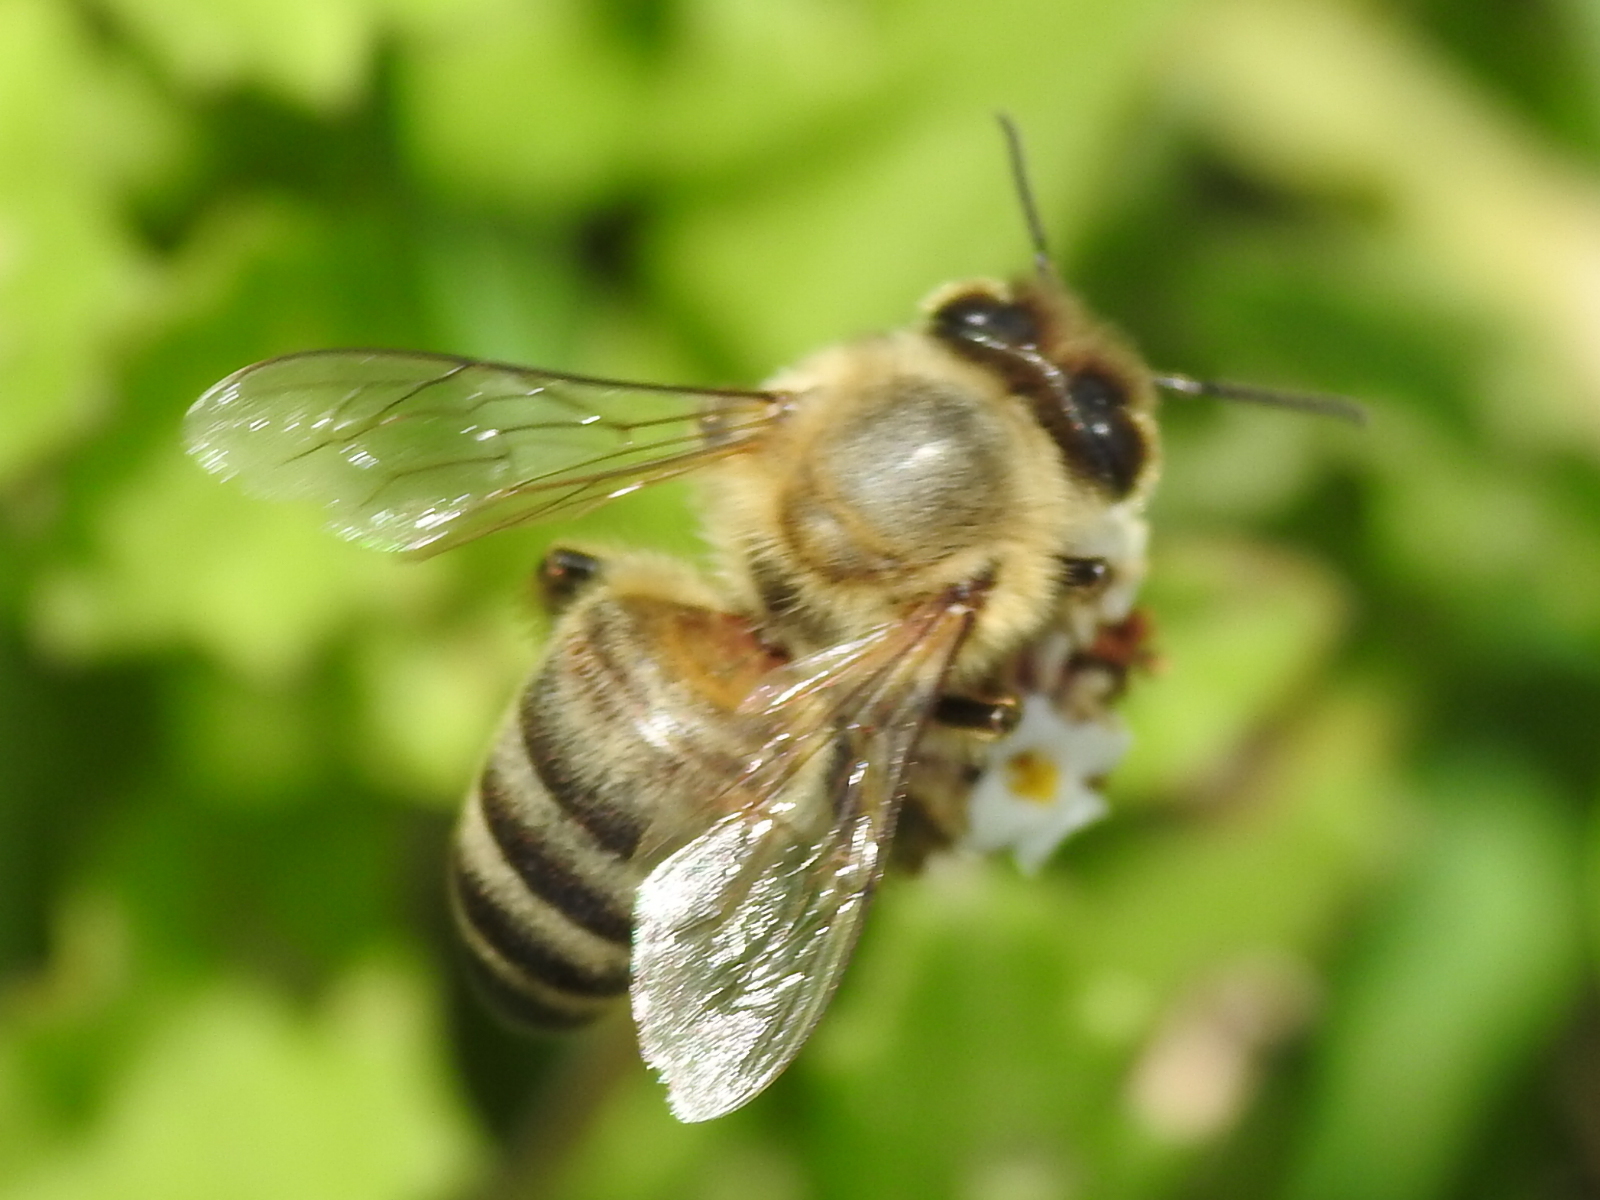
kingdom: Animalia
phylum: Arthropoda
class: Insecta
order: Hymenoptera
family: Apidae
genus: Apis
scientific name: Apis mellifera
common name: Honey bee
